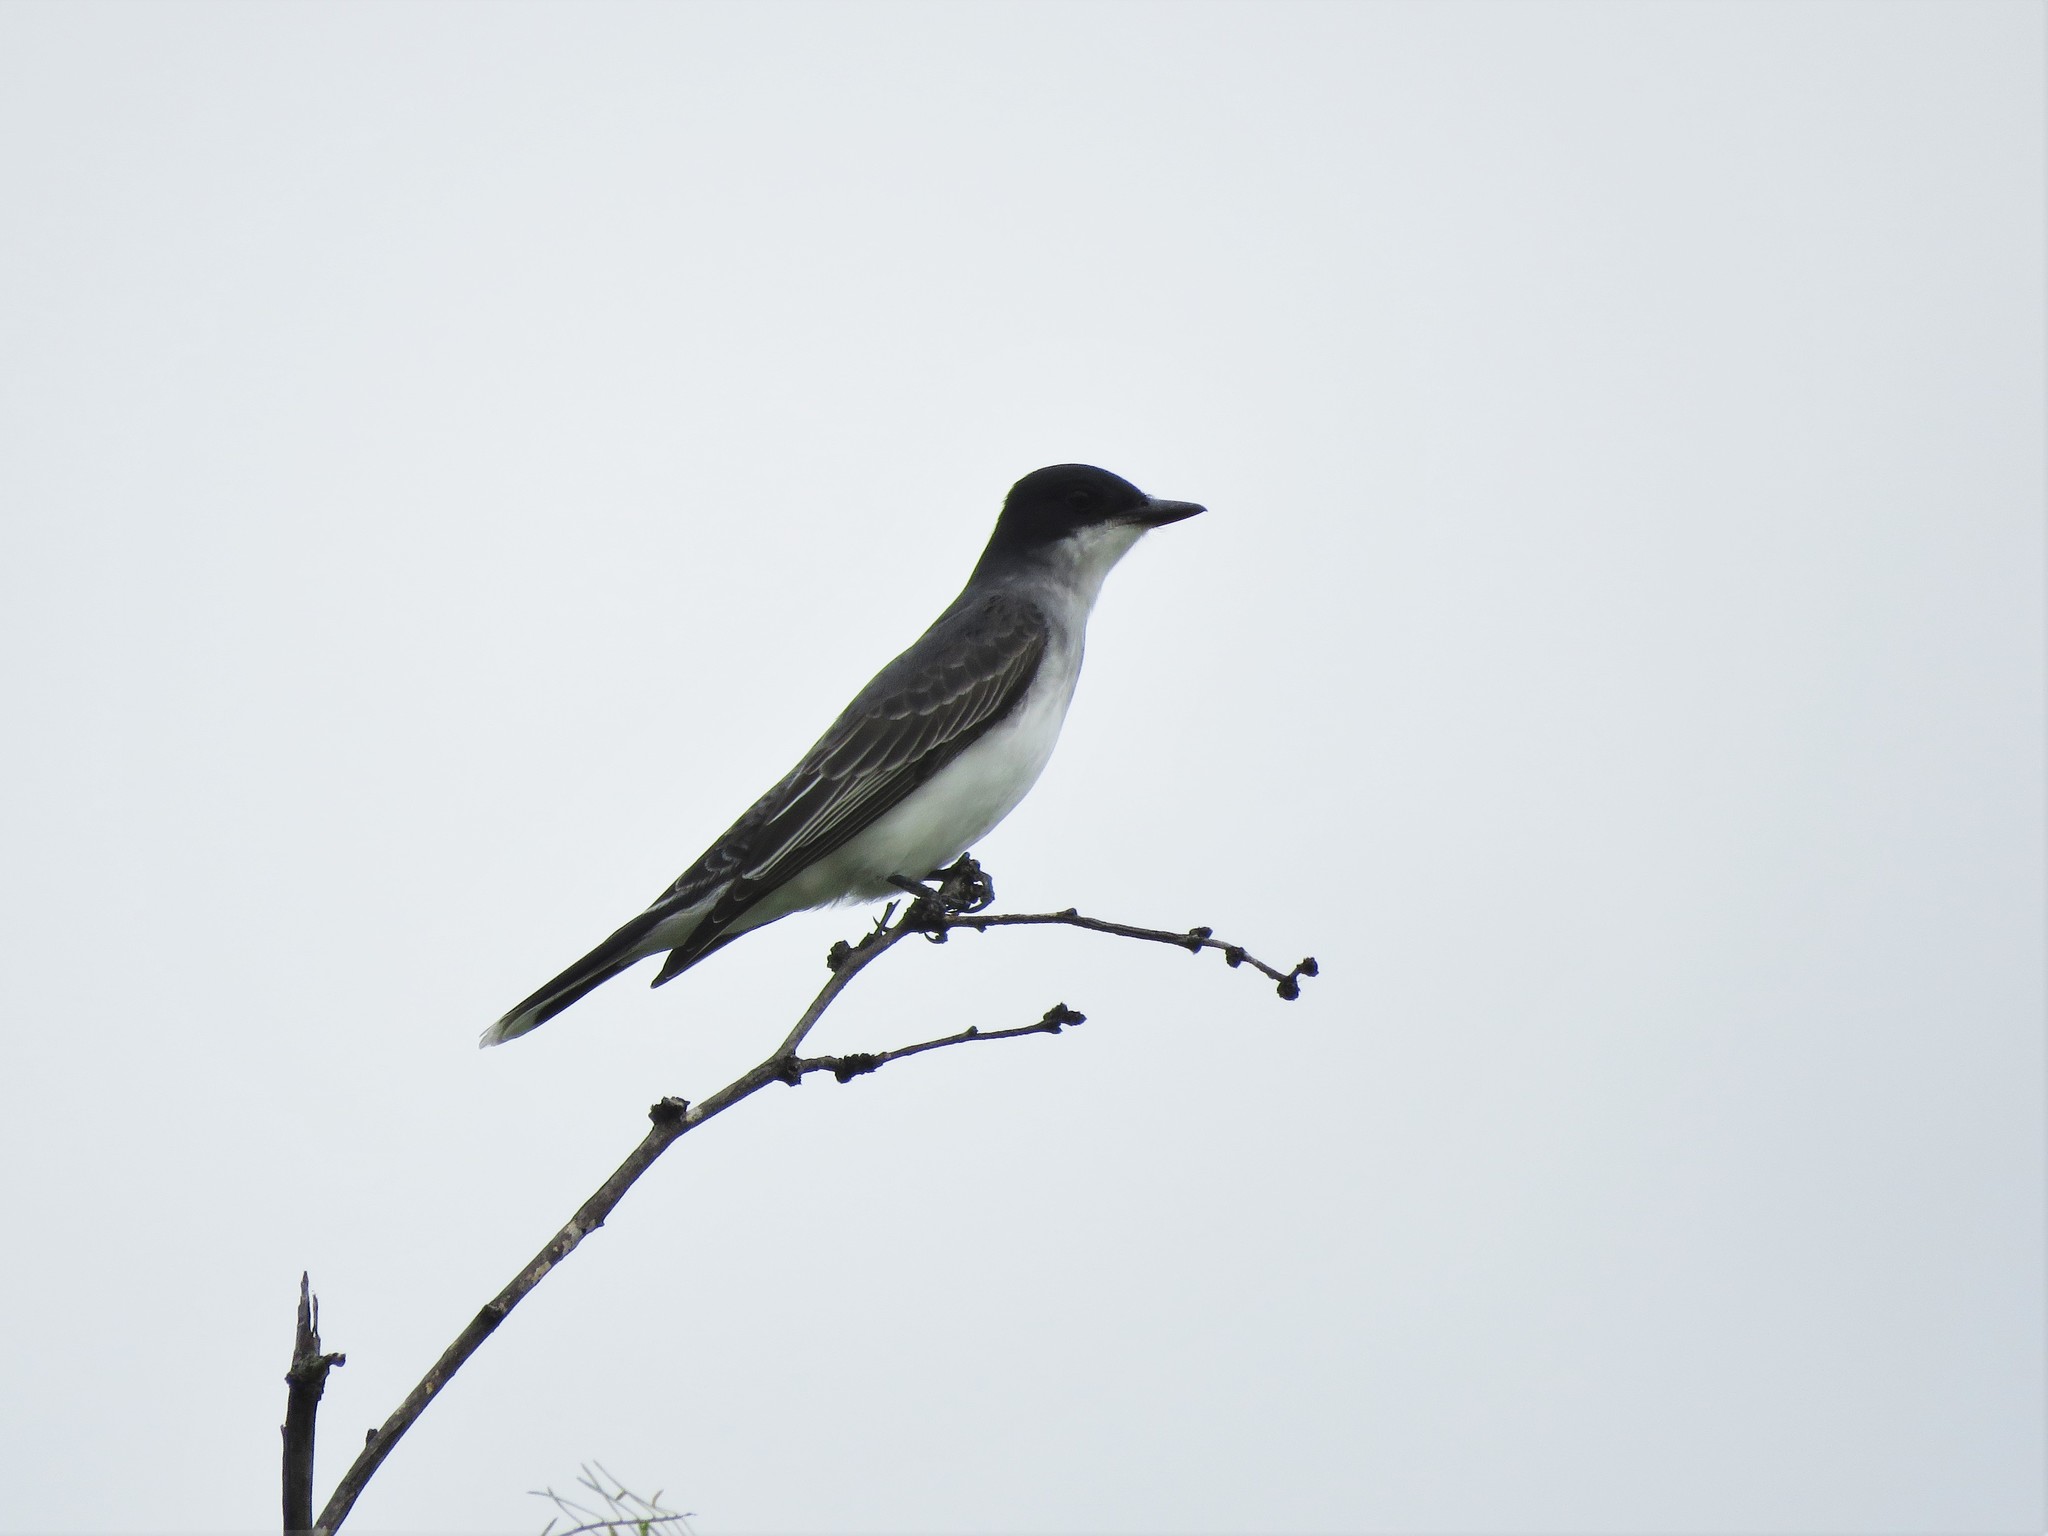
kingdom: Animalia
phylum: Chordata
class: Aves
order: Passeriformes
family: Tyrannidae
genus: Tyrannus
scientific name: Tyrannus tyrannus
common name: Eastern kingbird
